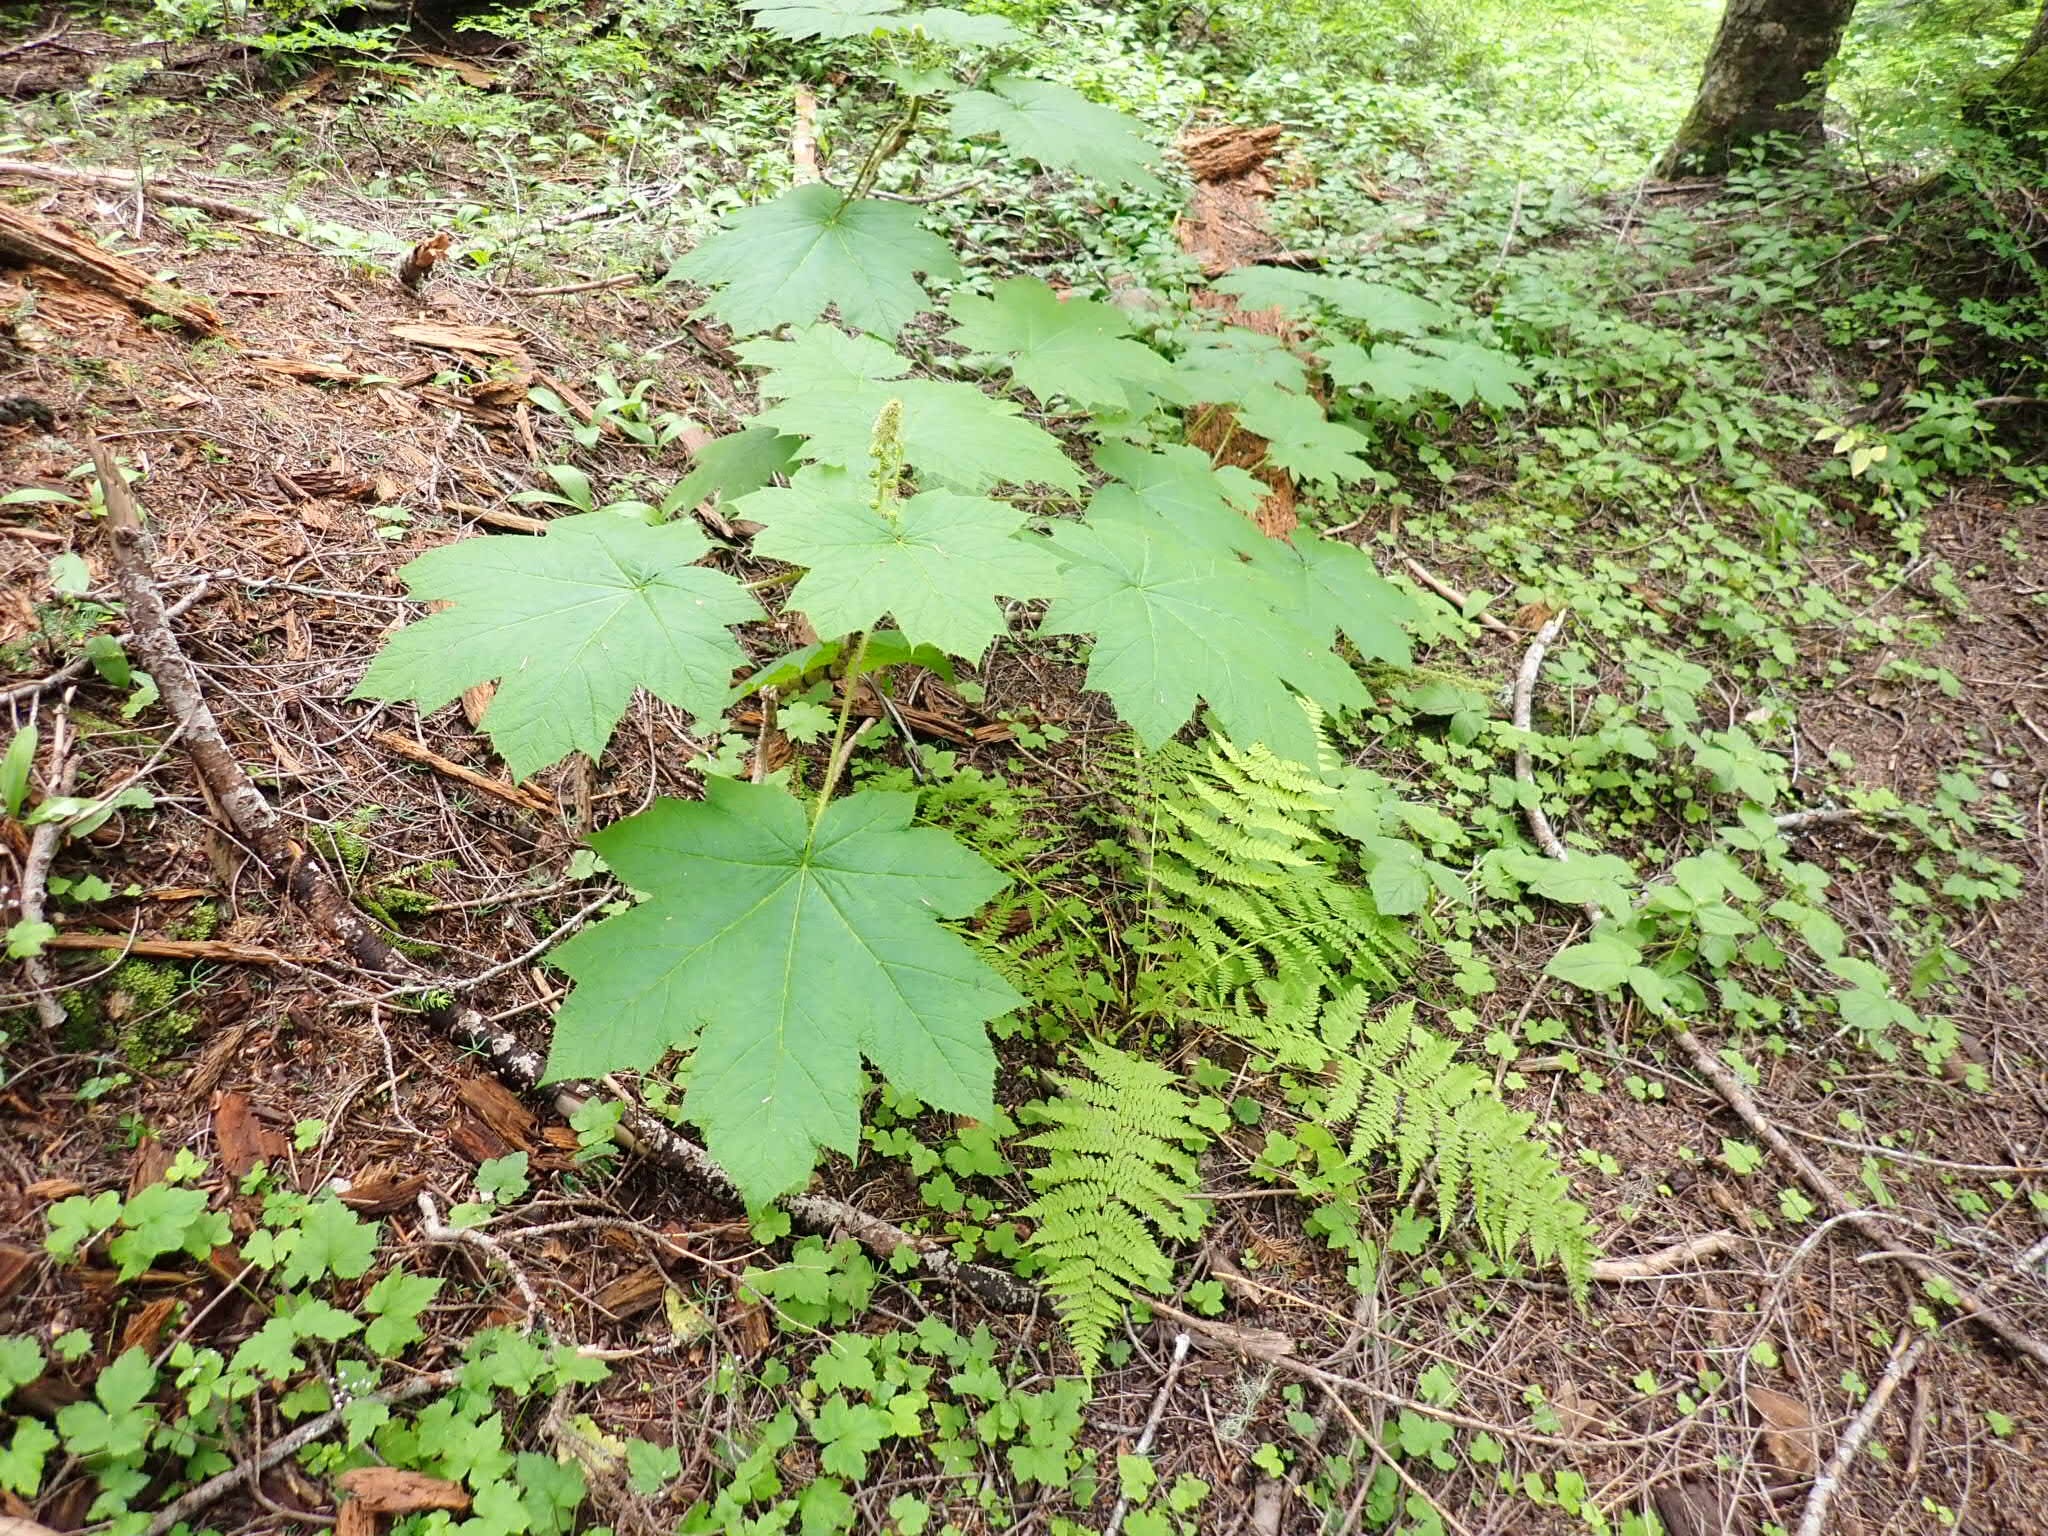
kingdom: Plantae
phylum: Tracheophyta
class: Magnoliopsida
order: Apiales
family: Araliaceae
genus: Oplopanax
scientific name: Oplopanax horridus
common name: Devil's walking-stick
